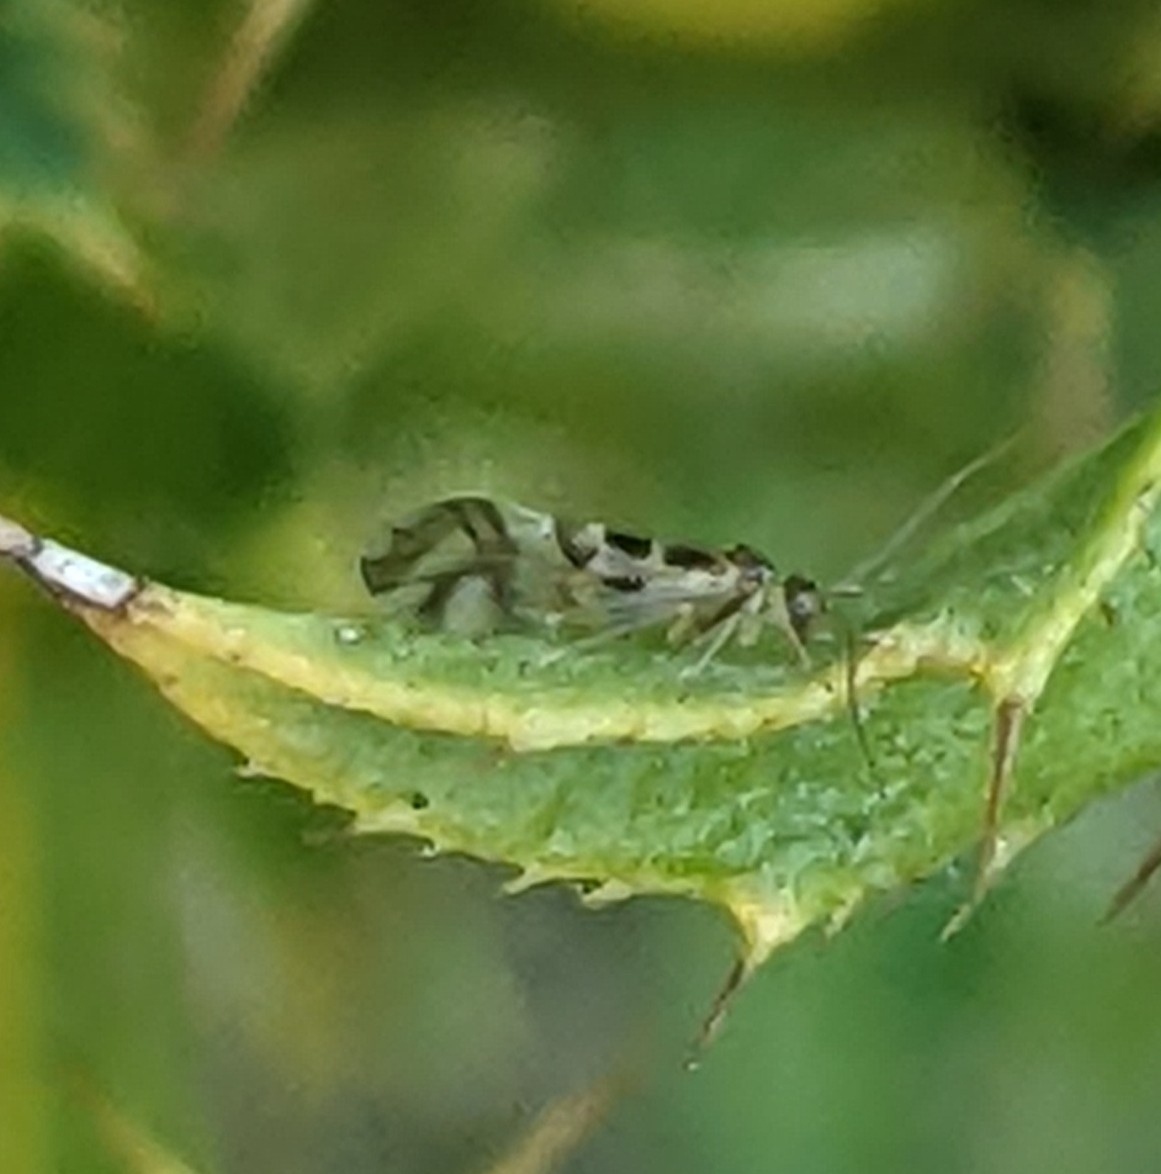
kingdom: Animalia
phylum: Arthropoda
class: Insecta
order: Psocodea
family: Stenopsocidae
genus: Graphopsocus
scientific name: Graphopsocus cruciatus
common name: Lizard bark louse
